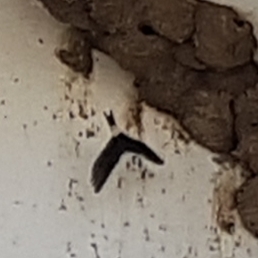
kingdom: Animalia
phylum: Chordata
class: Aves
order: Passeriformes
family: Hirundinidae
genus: Delichon
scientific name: Delichon urbicum
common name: Common house martin
